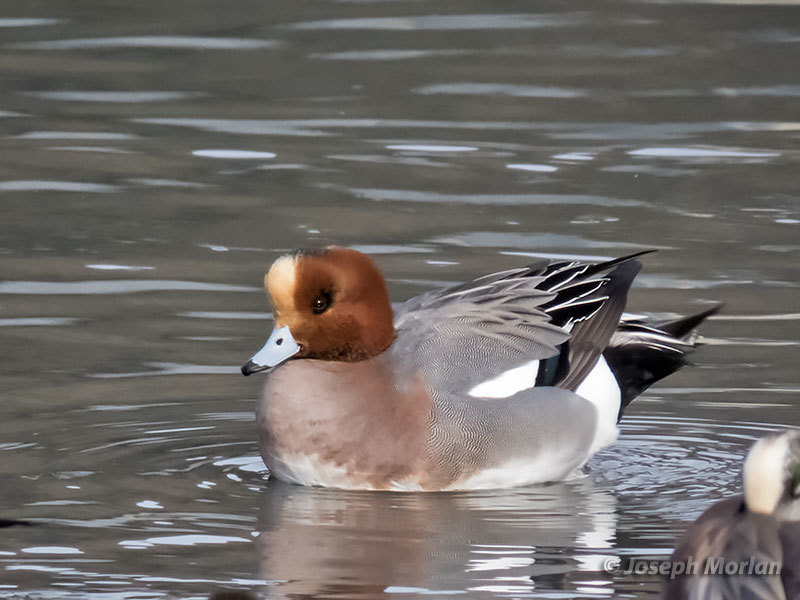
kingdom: Animalia
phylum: Chordata
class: Aves
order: Anseriformes
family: Anatidae
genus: Mareca
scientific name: Mareca penelope
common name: Eurasian wigeon
